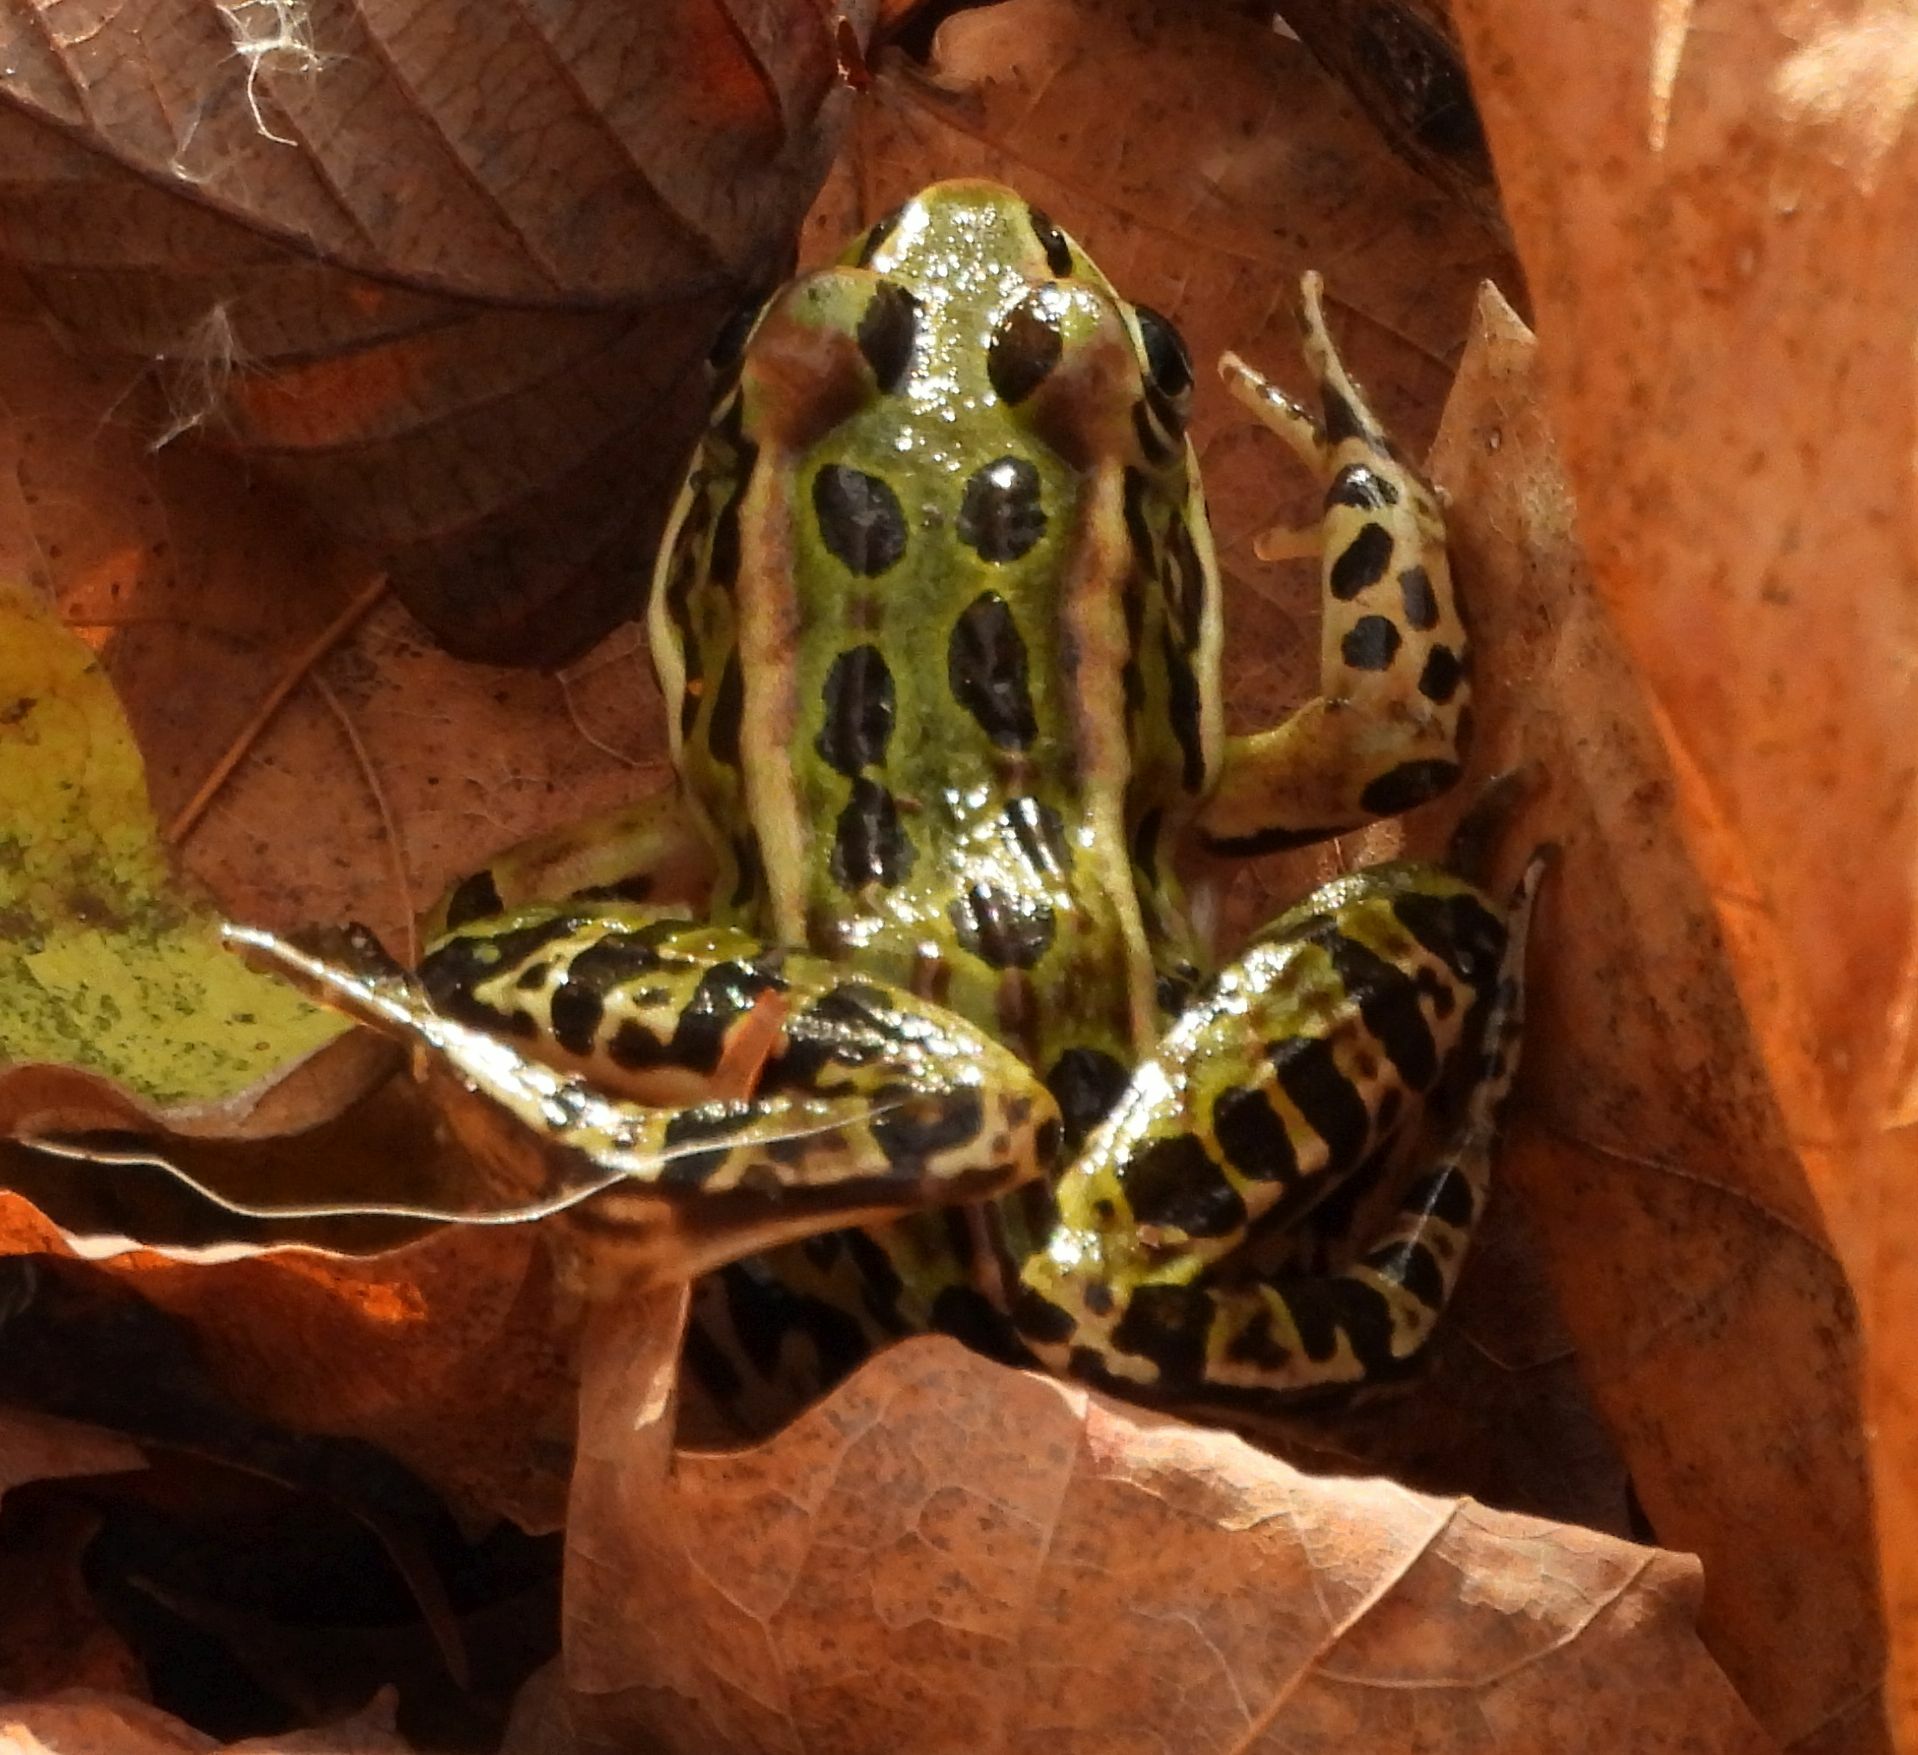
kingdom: Animalia
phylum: Chordata
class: Amphibia
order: Anura
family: Ranidae
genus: Lithobates
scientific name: Lithobates pipiens
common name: Northern leopard frog
